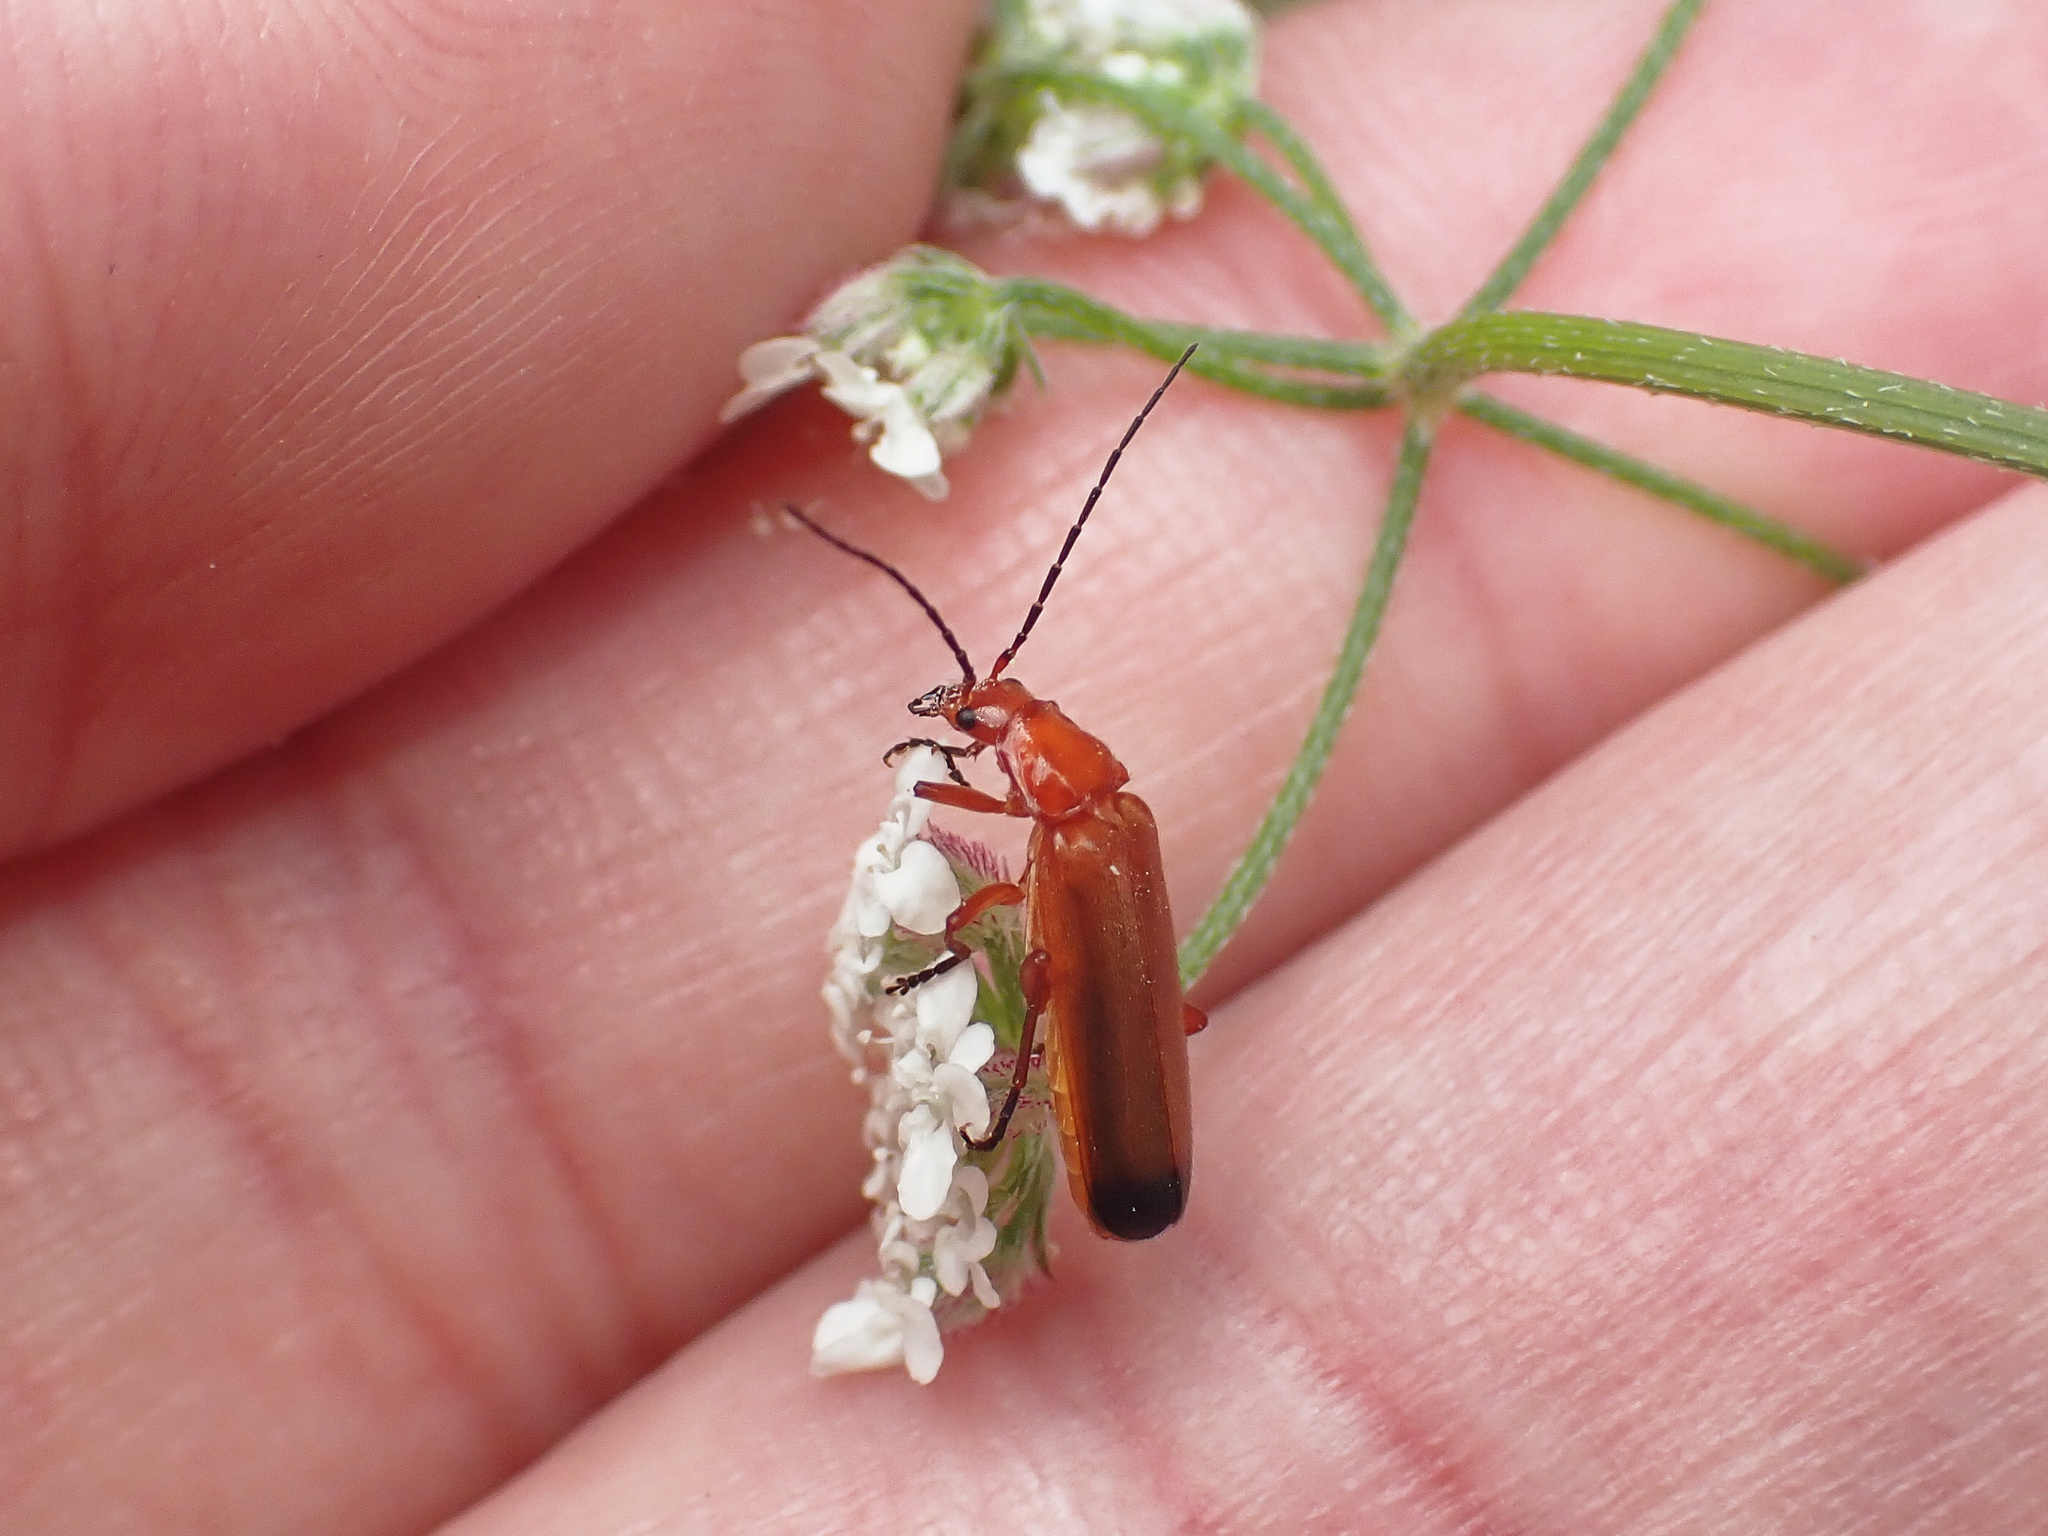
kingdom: Animalia
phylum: Arthropoda
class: Insecta
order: Coleoptera
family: Cantharidae
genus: Rhagonycha
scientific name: Rhagonycha fulva
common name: Common red soldier beetle
